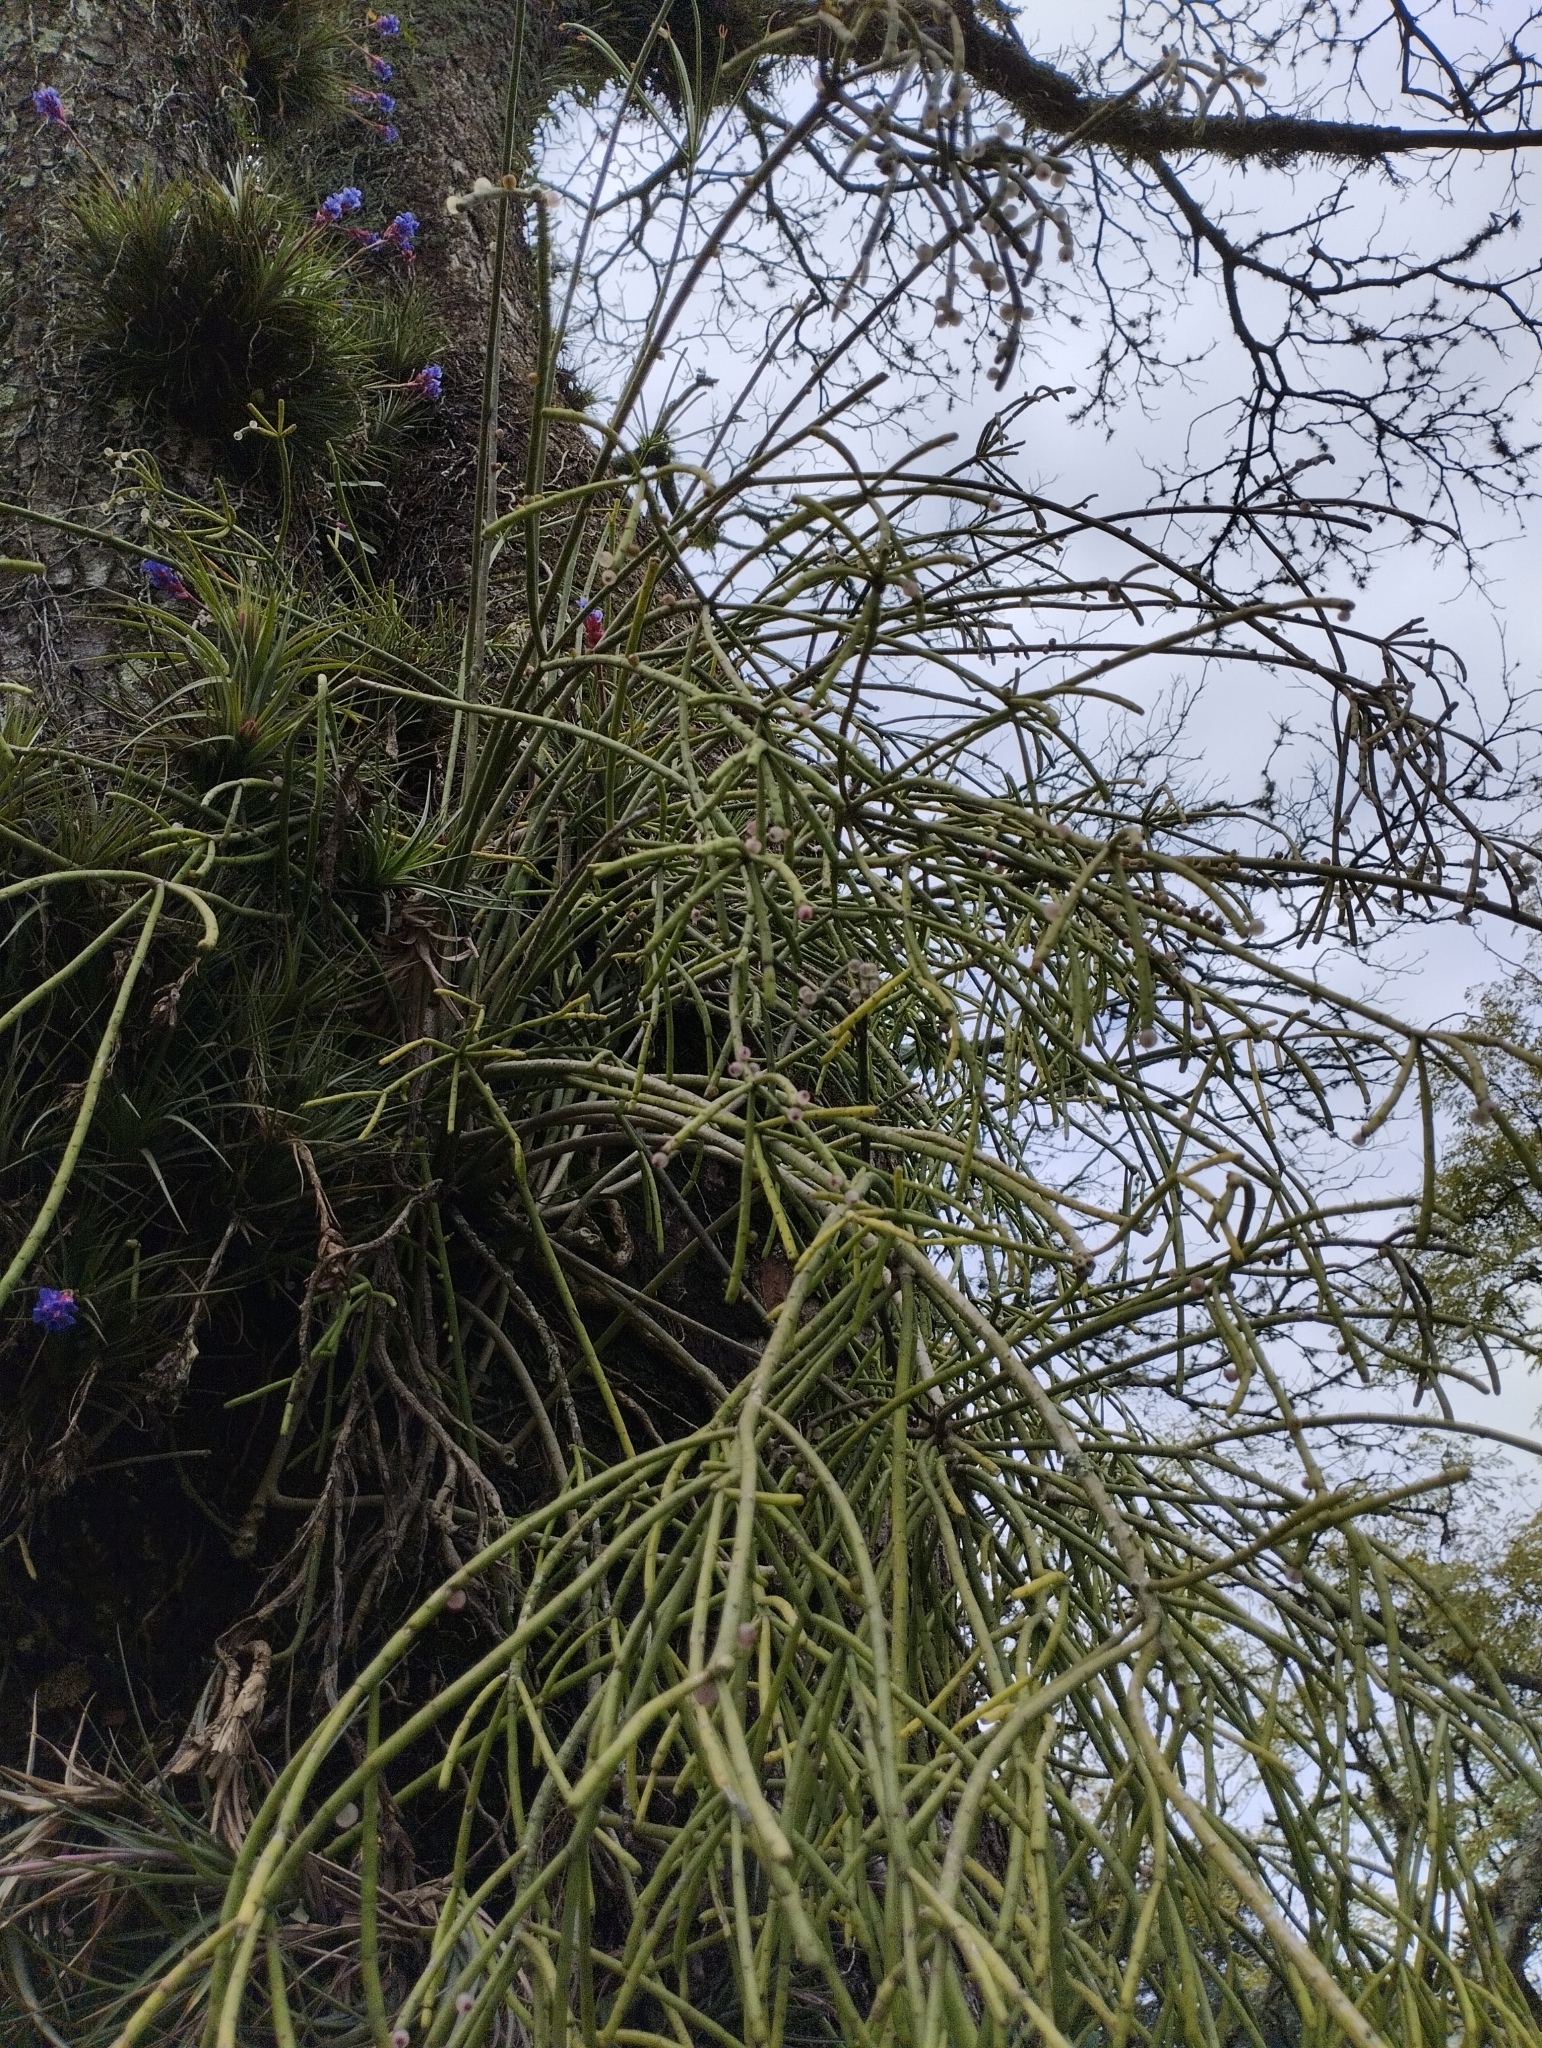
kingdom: Plantae
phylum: Tracheophyta
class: Magnoliopsida
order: Caryophyllales
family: Cactaceae
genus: Rhipsalis
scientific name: Rhipsalis teres
